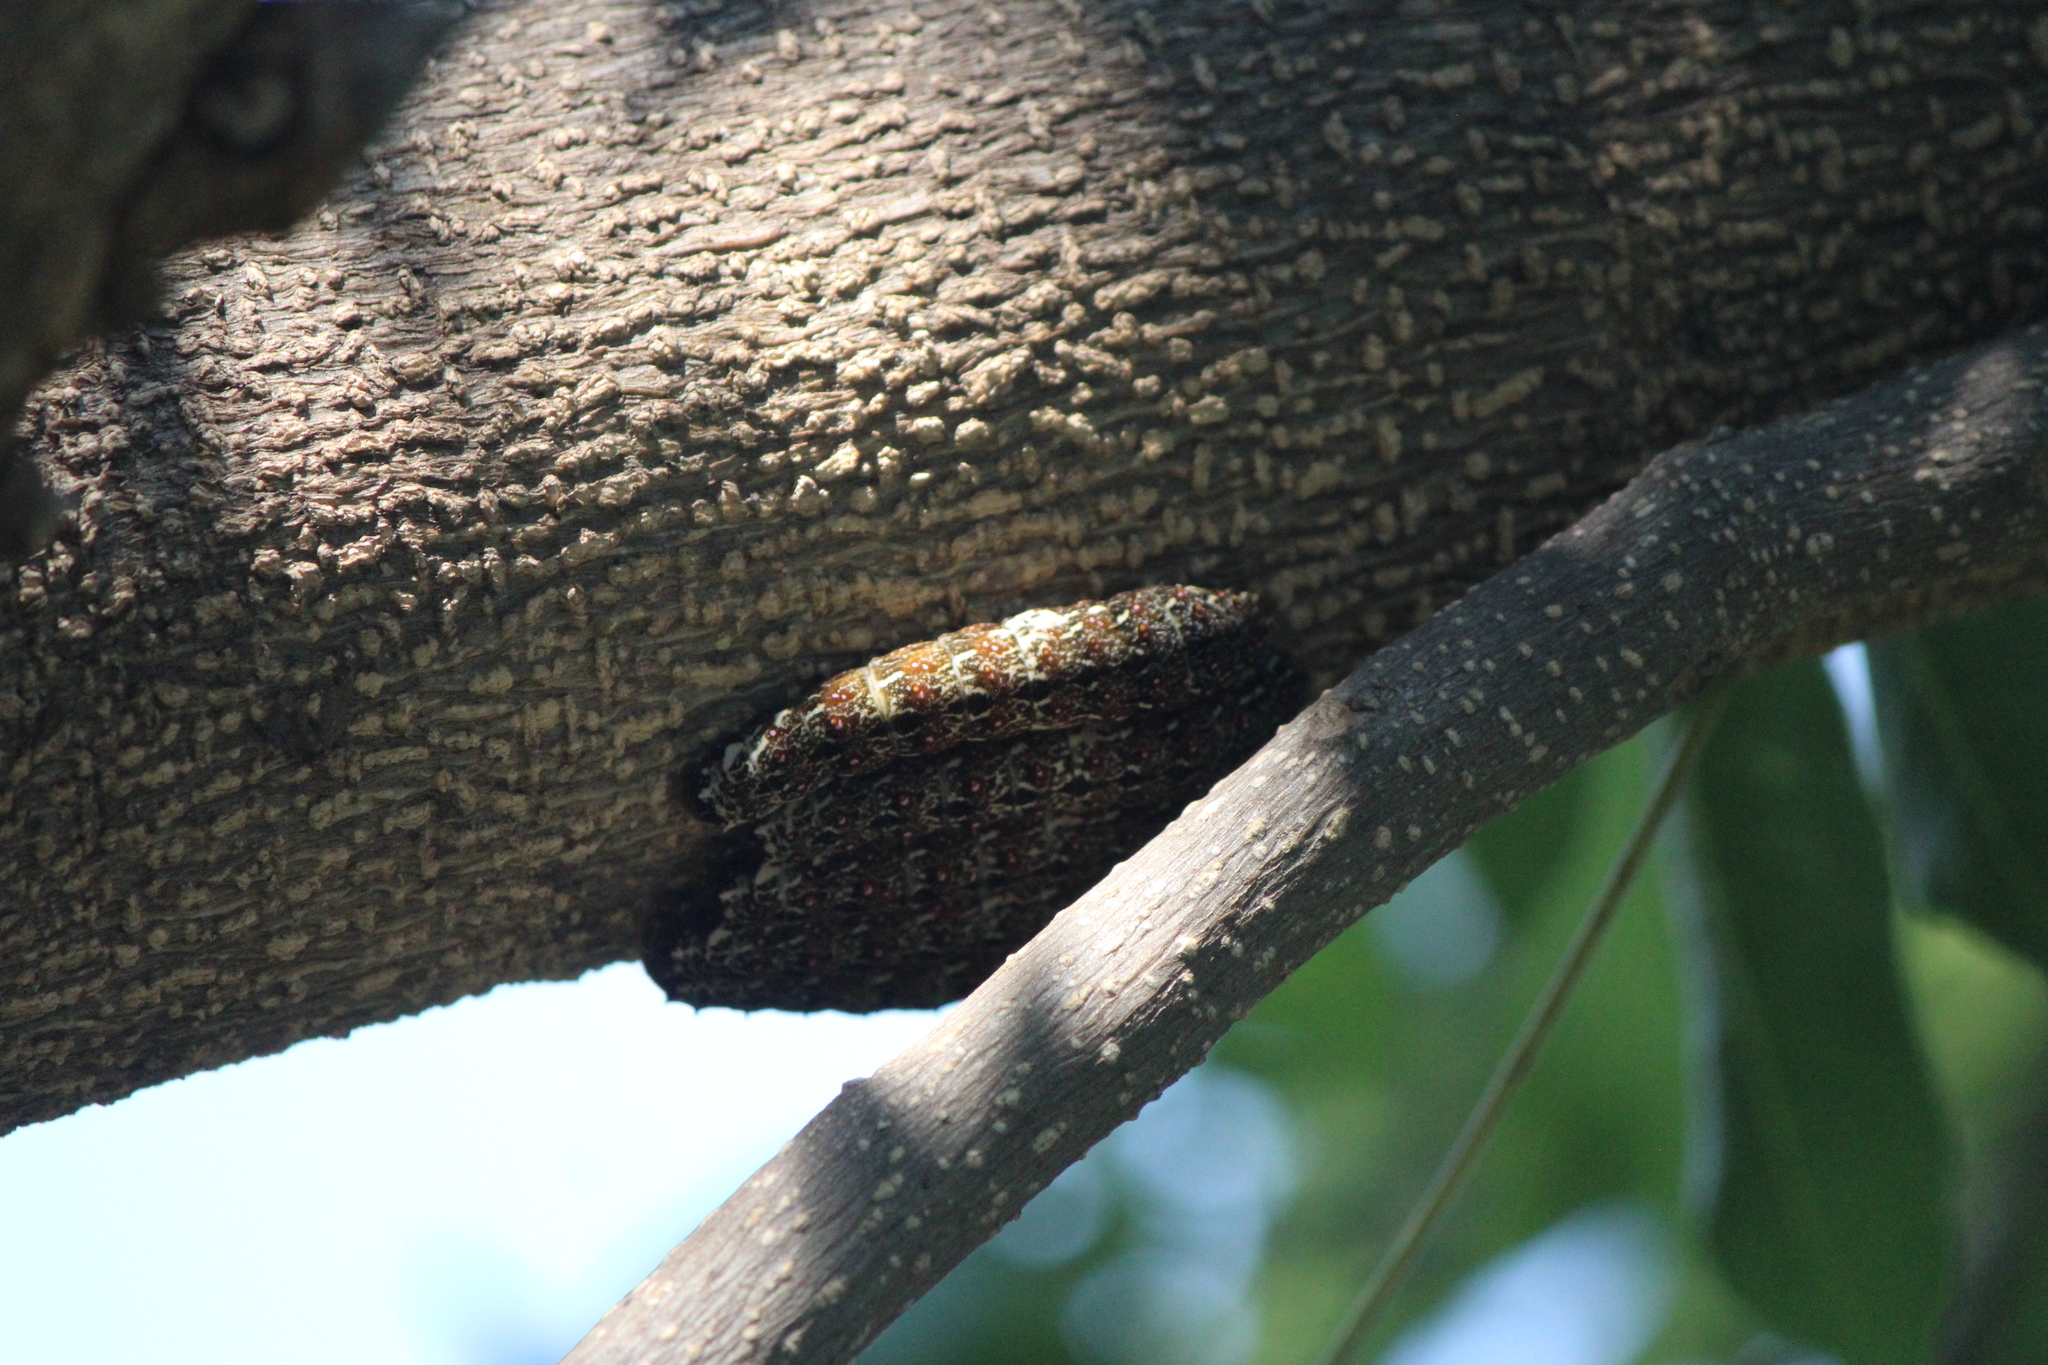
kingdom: Animalia
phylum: Arthropoda
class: Insecta
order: Lepidoptera
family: Papilionidae
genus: Heraclides
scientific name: Heraclides rogeri
